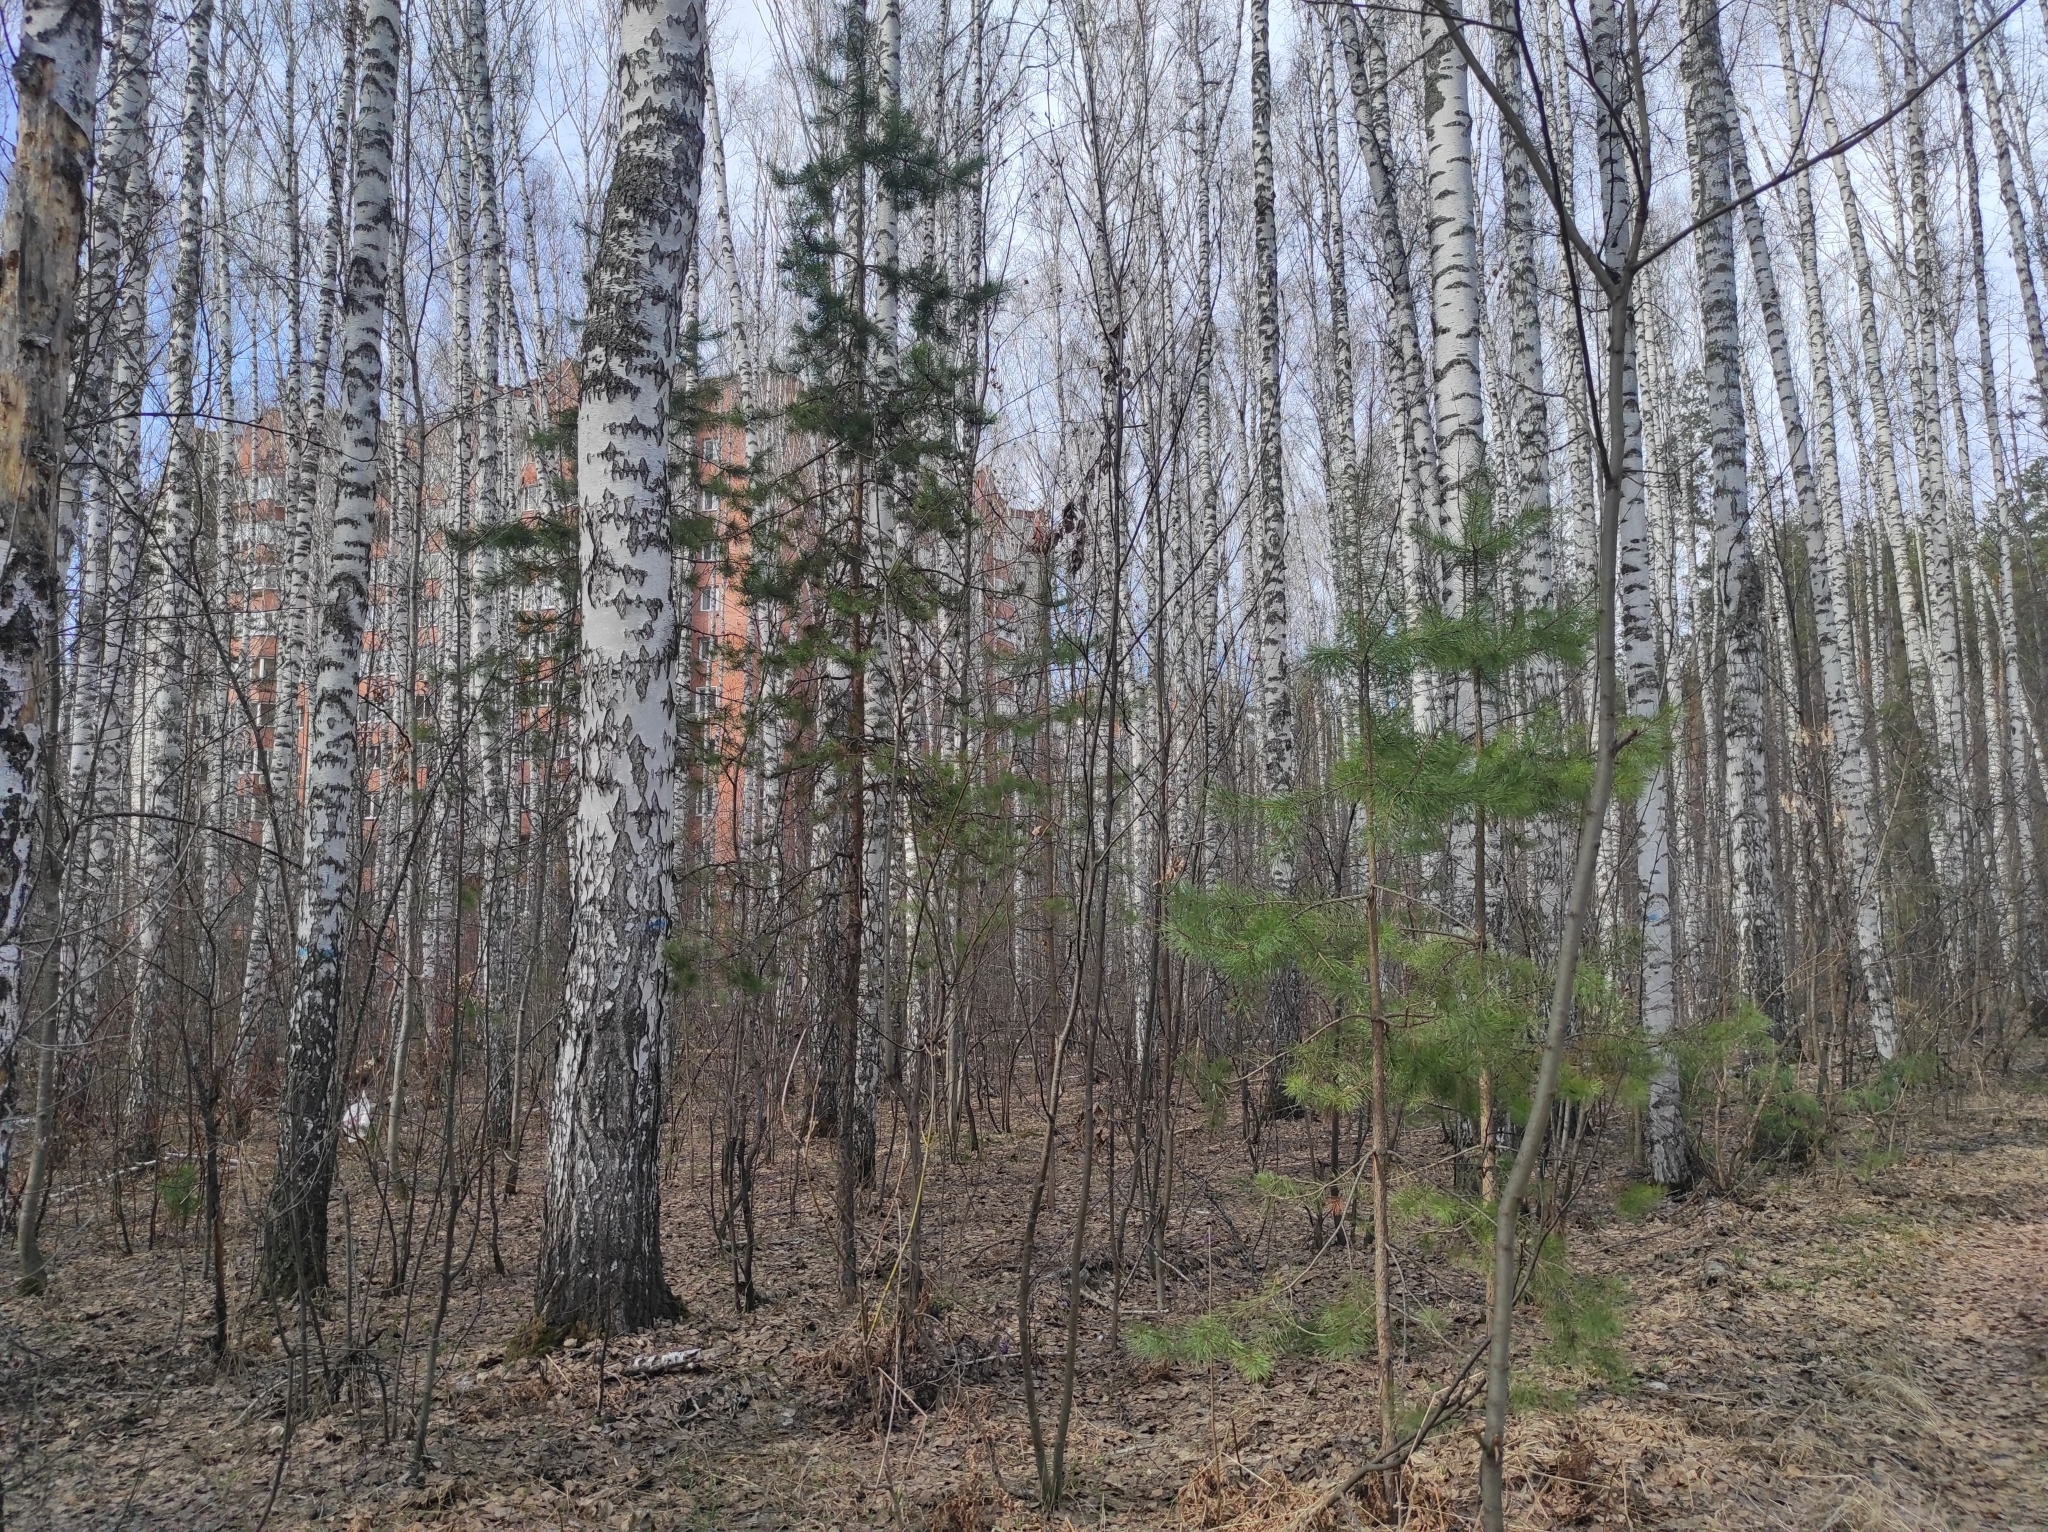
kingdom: Plantae
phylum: Tracheophyta
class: Pinopsida
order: Pinales
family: Pinaceae
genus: Pinus
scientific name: Pinus sylvestris
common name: Scots pine
